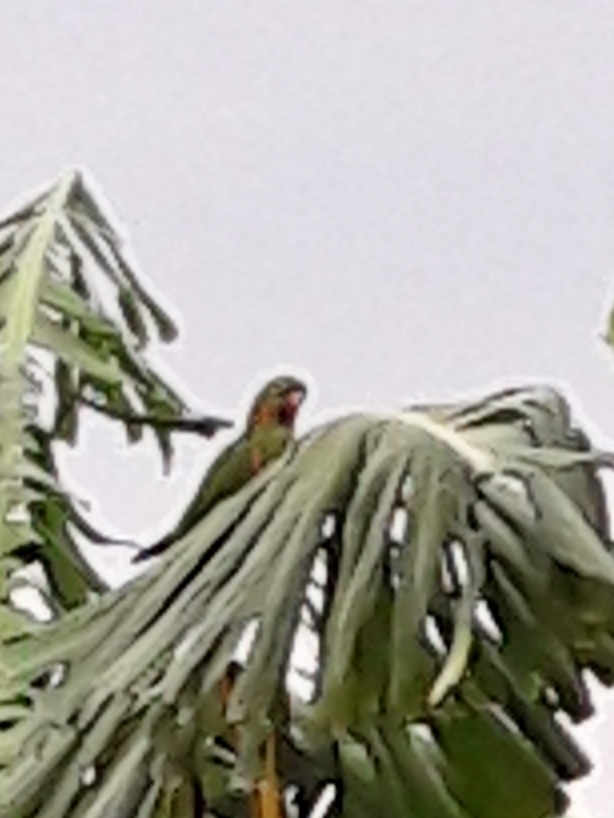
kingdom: Animalia
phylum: Chordata
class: Aves
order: Psittaciformes
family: Psittacidae
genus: Aratinga
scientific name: Aratinga leucophthalma
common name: White-eyed parakeet
